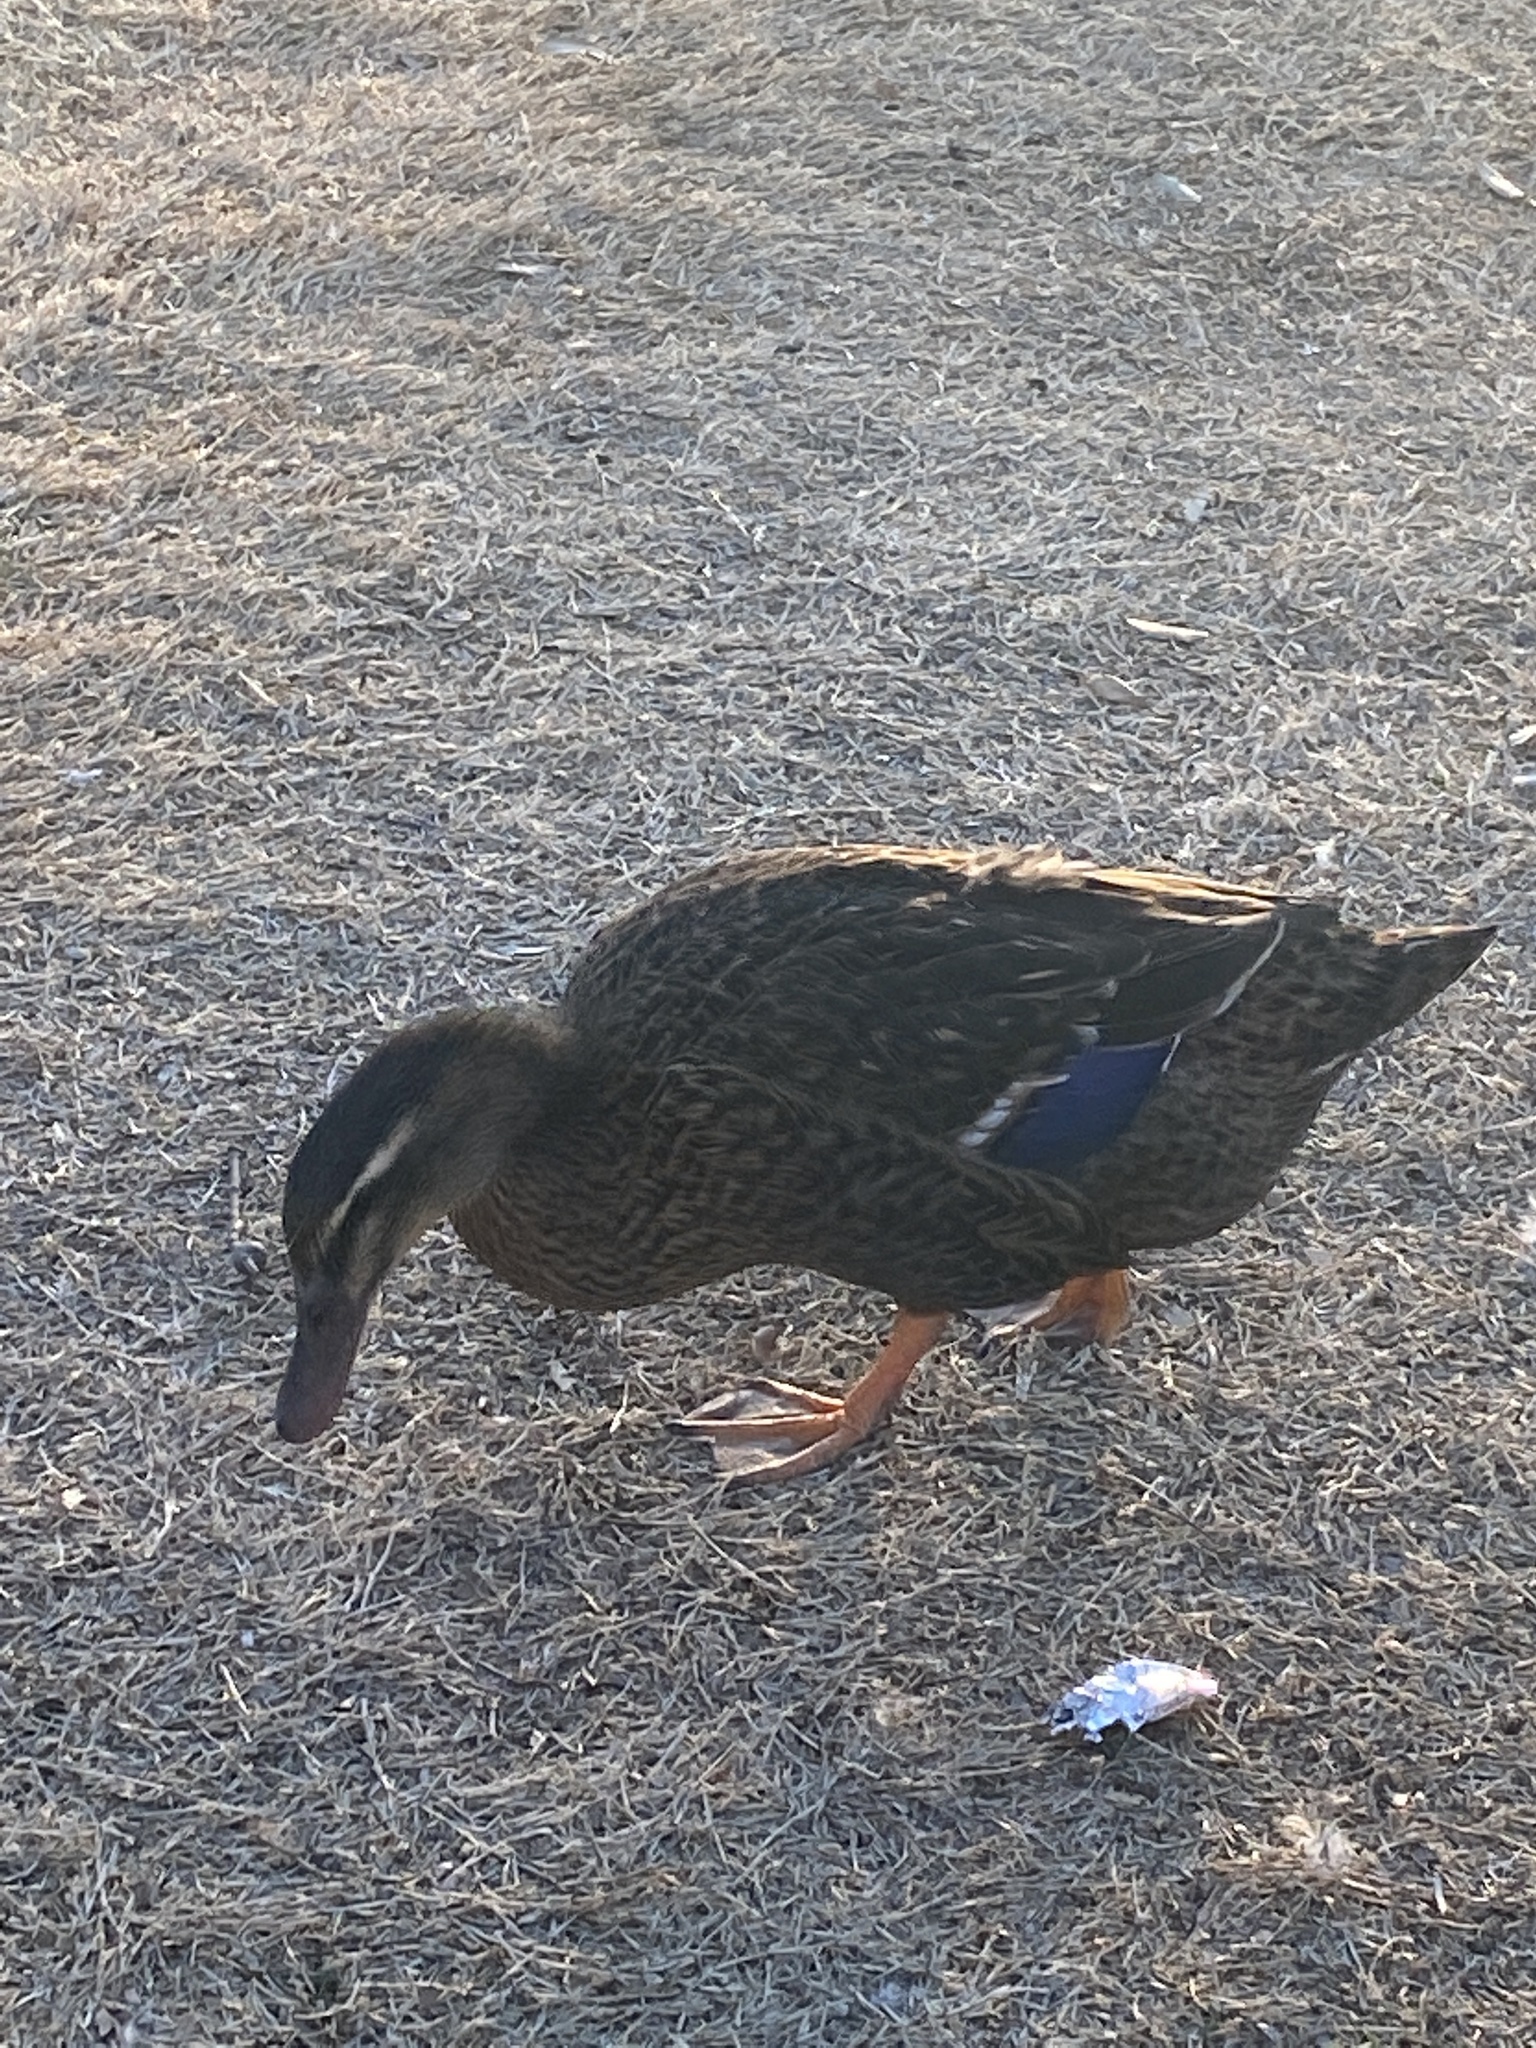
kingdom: Animalia
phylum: Chordata
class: Aves
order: Anseriformes
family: Anatidae
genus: Anas
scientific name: Anas platyrhynchos
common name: Mallard
